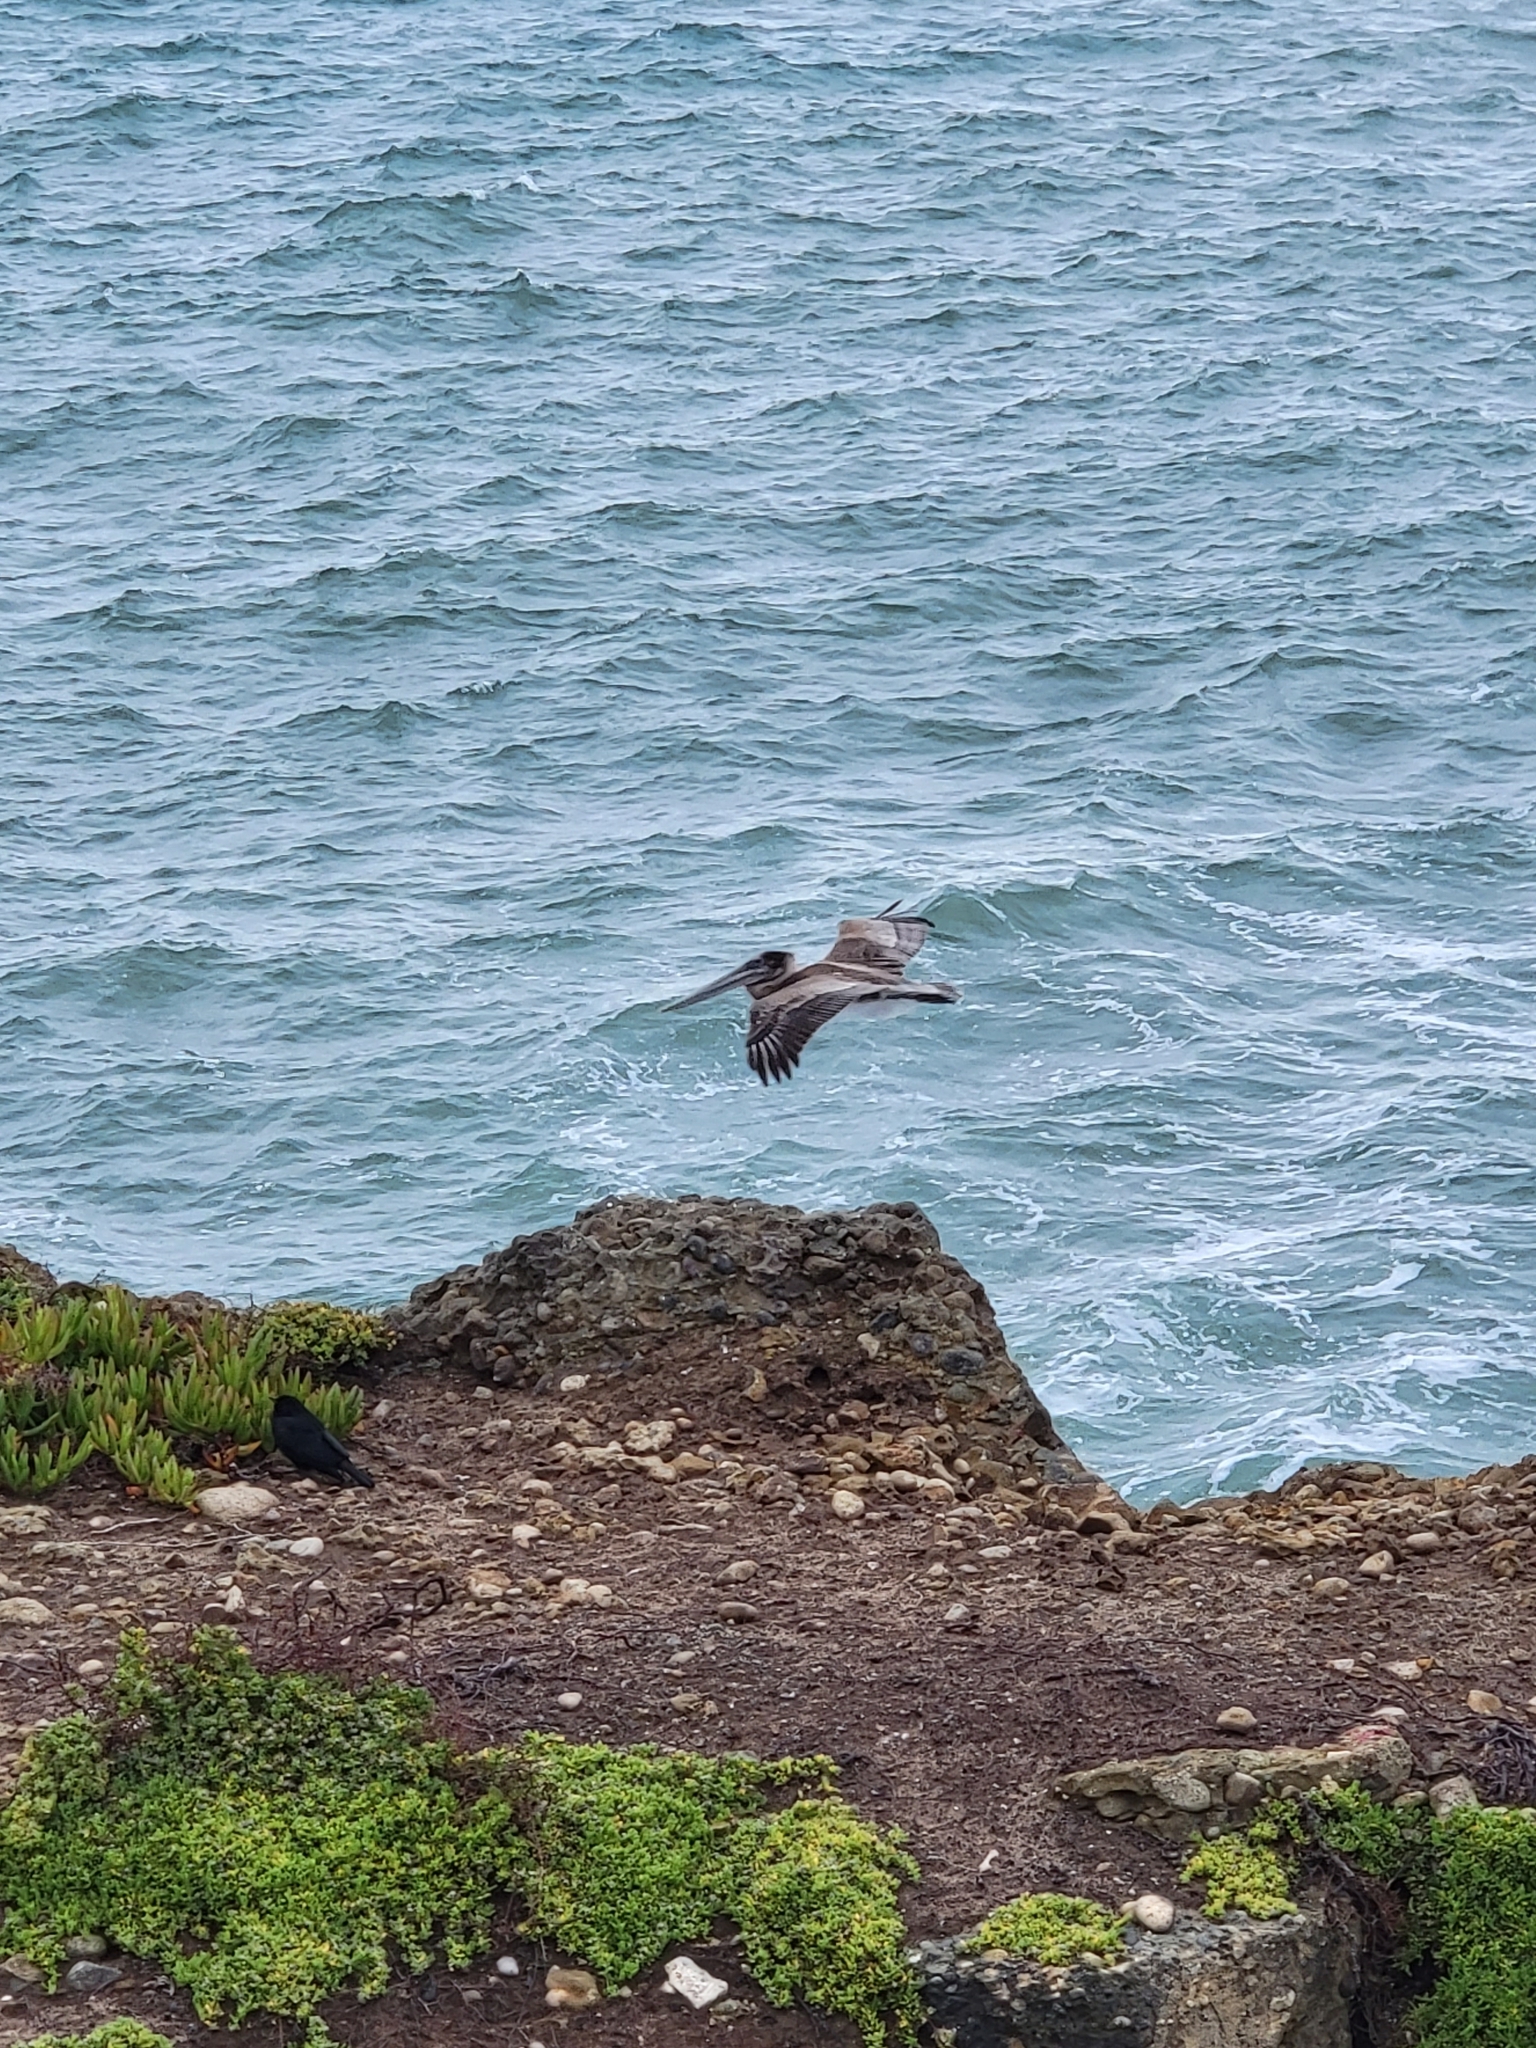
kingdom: Animalia
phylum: Chordata
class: Aves
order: Pelecaniformes
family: Pelecanidae
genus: Pelecanus
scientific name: Pelecanus occidentalis
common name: Brown pelican
